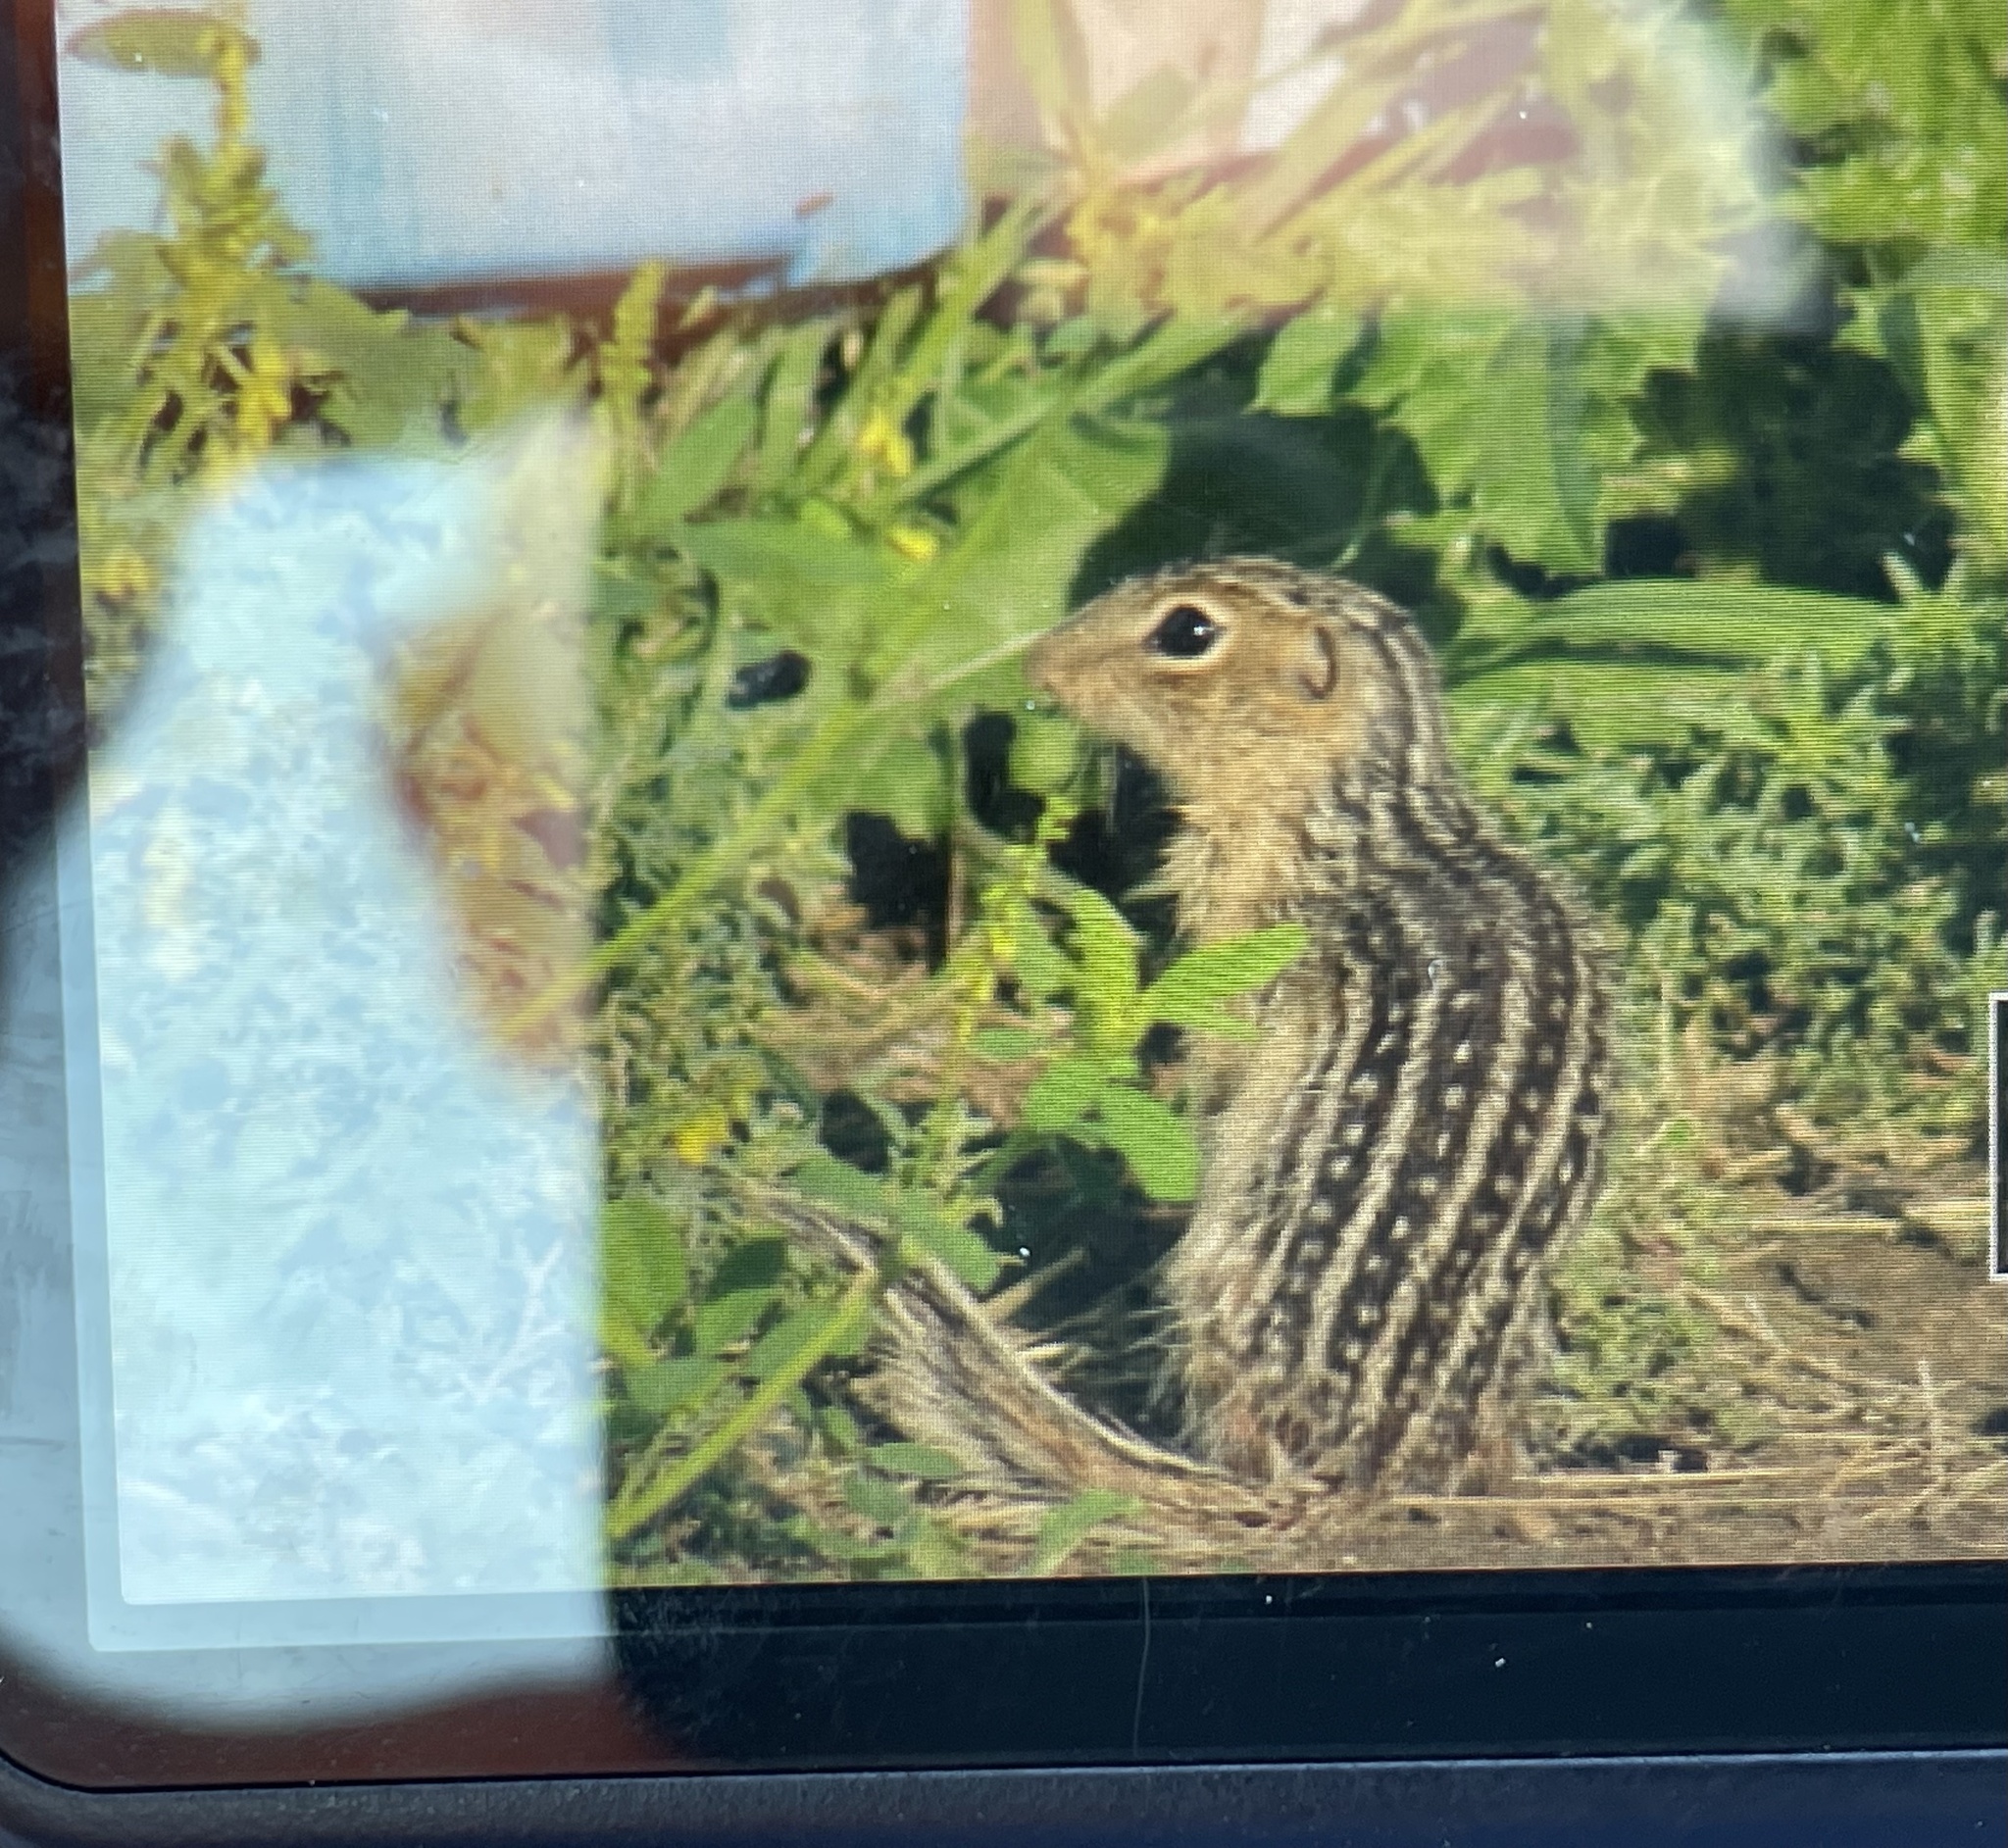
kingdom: Animalia
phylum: Chordata
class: Mammalia
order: Rodentia
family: Sciuridae
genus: Ictidomys
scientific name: Ictidomys tridecemlineatus
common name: Thirteen-lined ground squirrel
